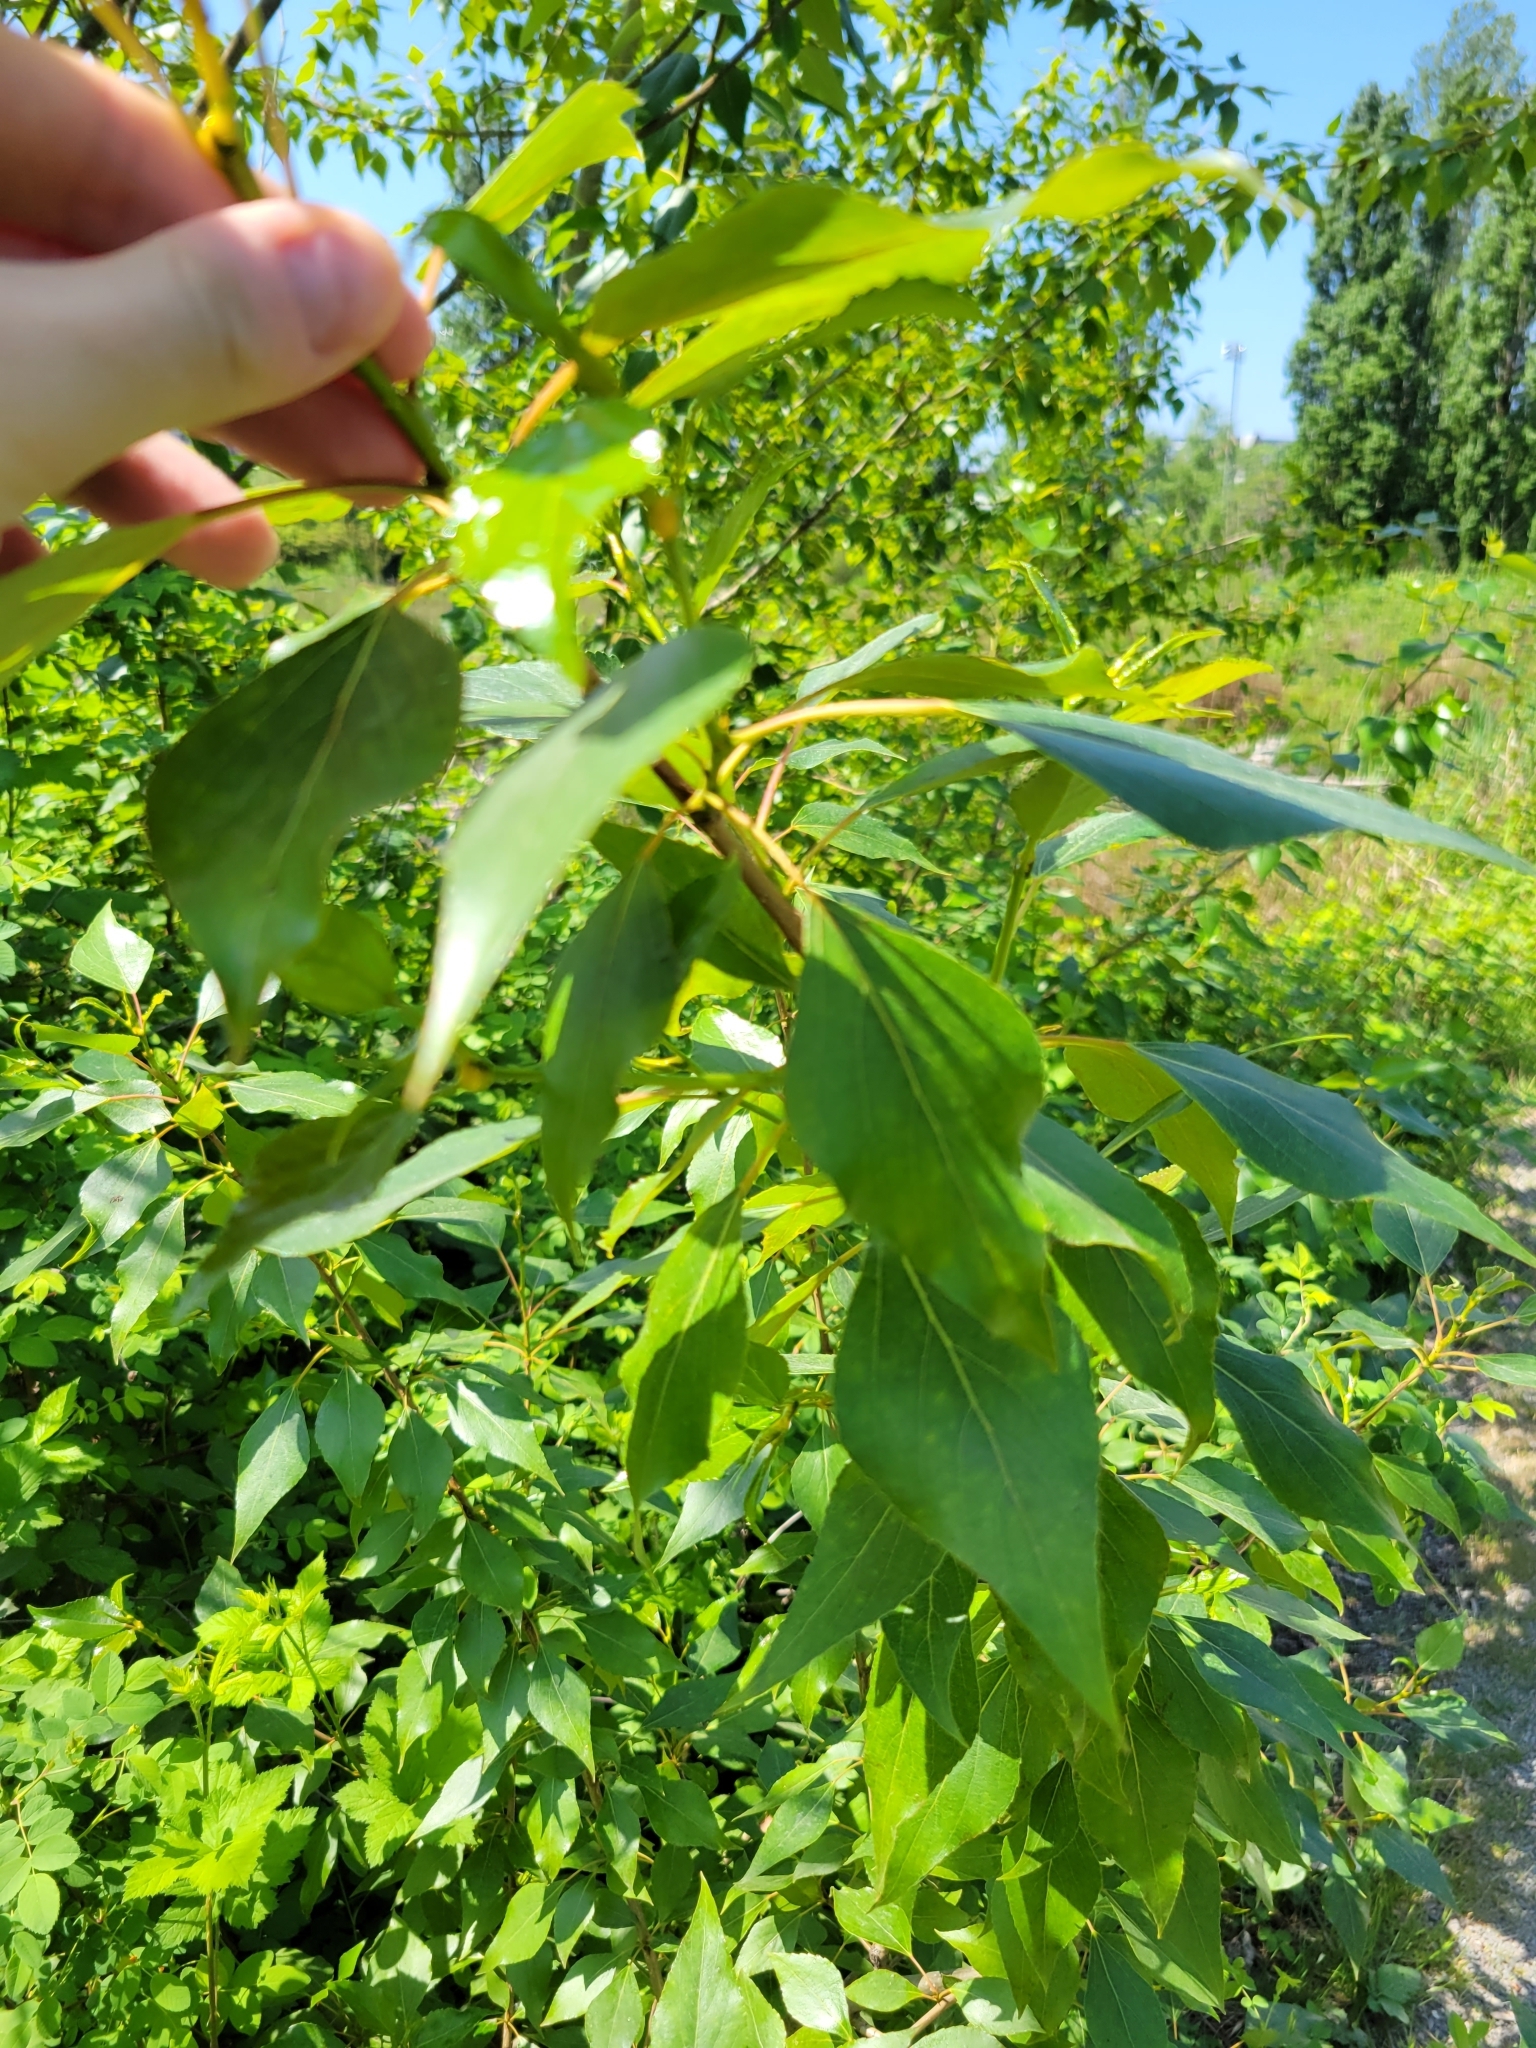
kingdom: Plantae
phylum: Tracheophyta
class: Magnoliopsida
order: Malpighiales
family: Salicaceae
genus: Populus
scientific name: Populus nigra
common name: Black poplar
